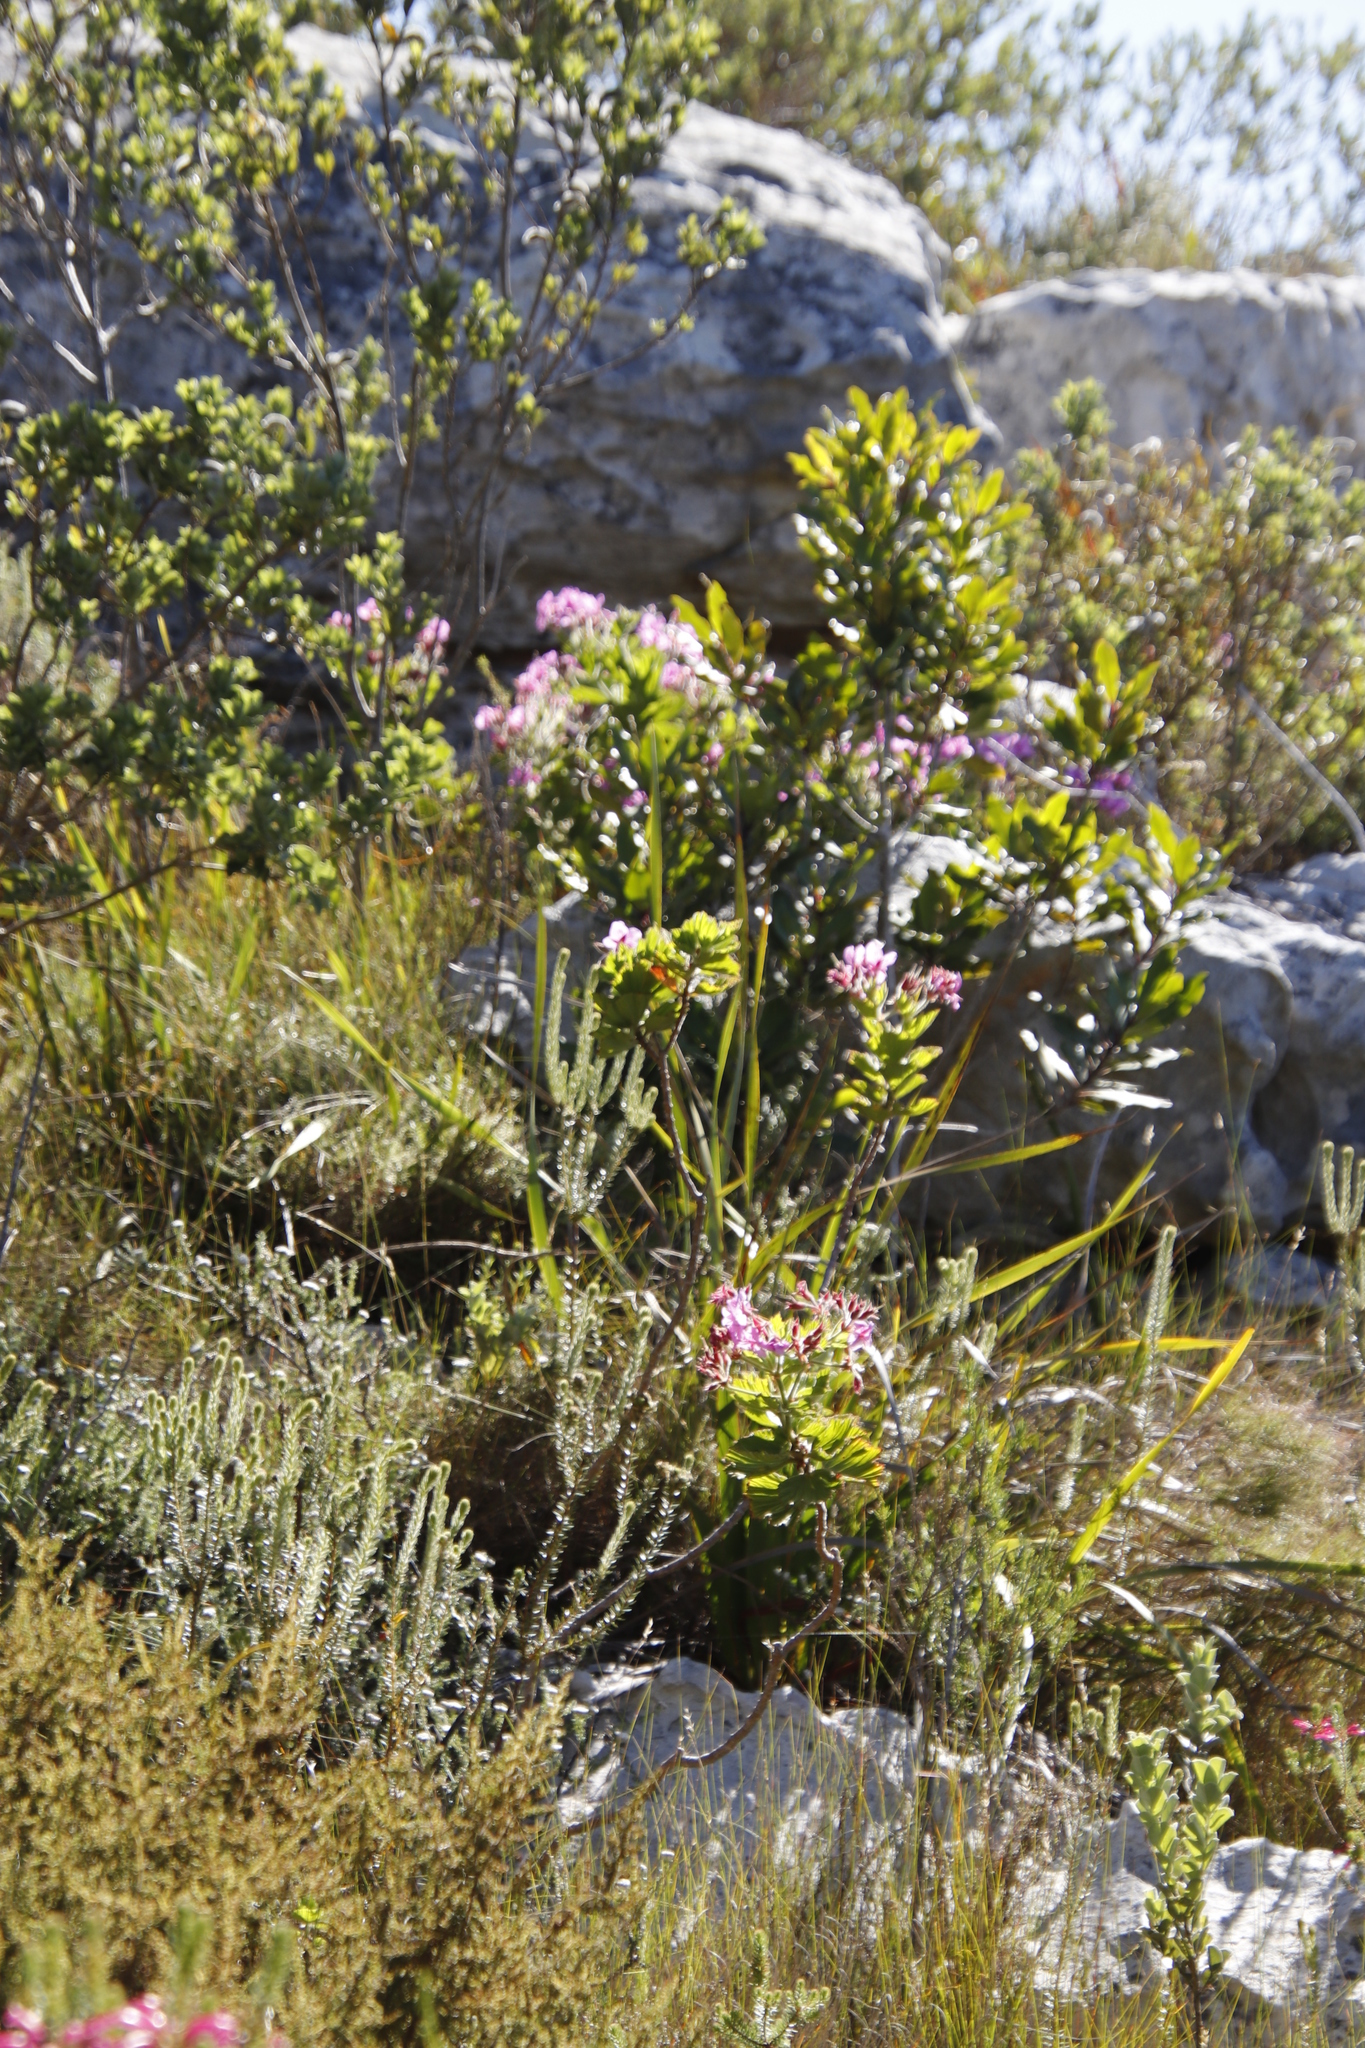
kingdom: Plantae
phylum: Tracheophyta
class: Magnoliopsida
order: Geraniales
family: Geraniaceae
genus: Pelargonium
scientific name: Pelargonium cucullatum
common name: Tree pelargonium
